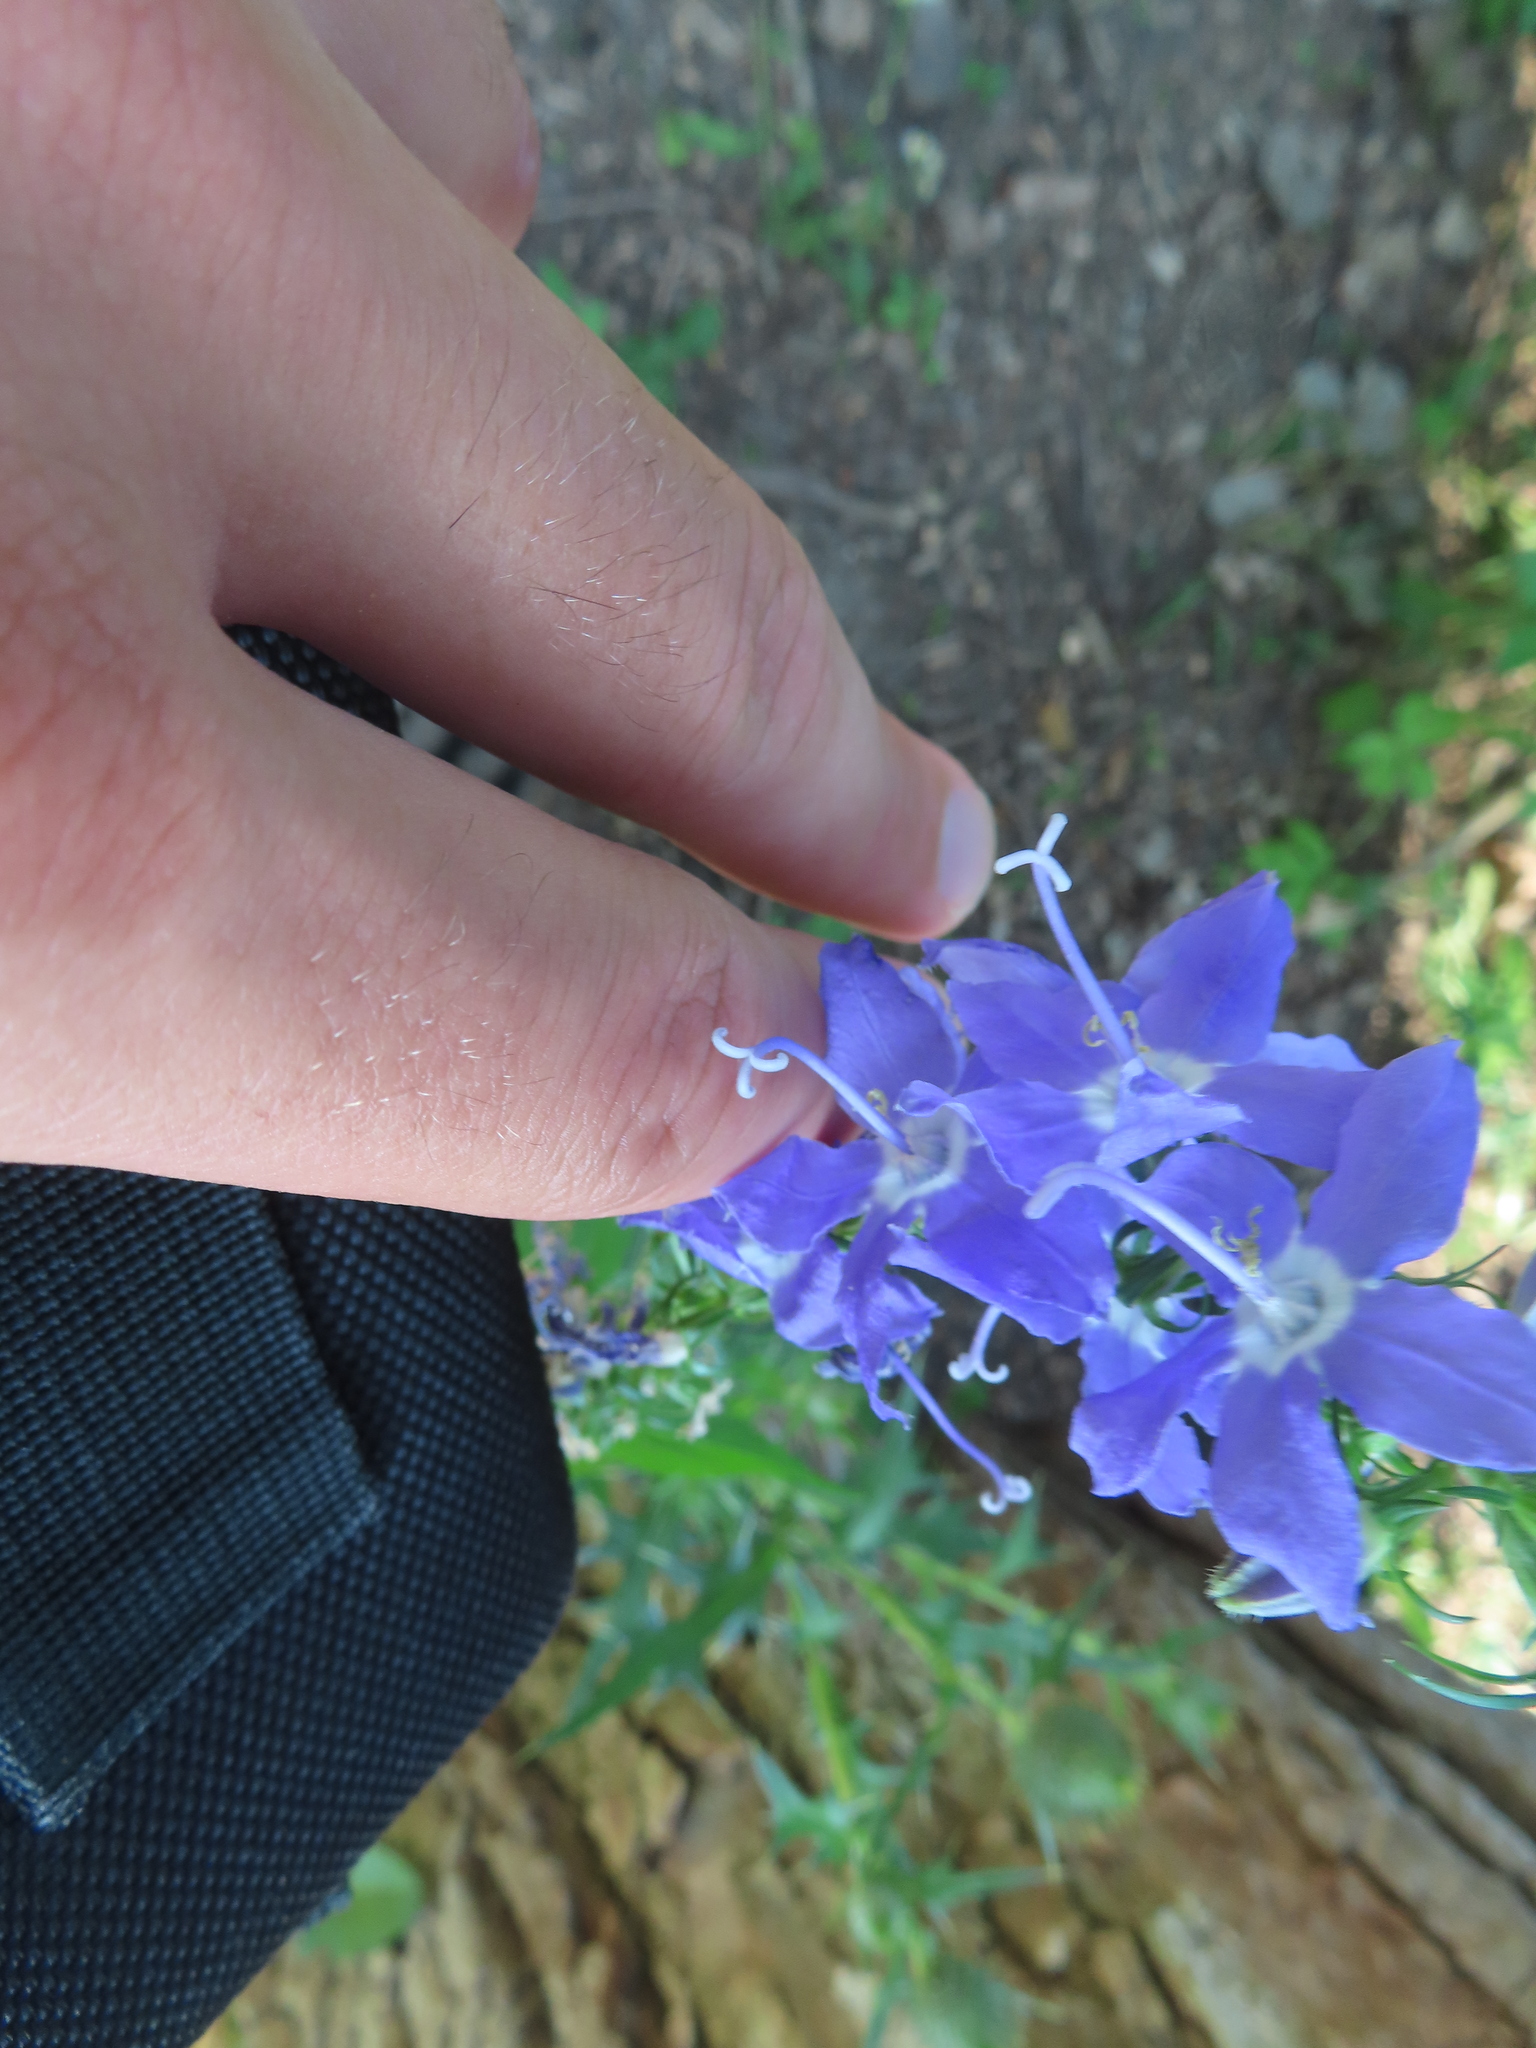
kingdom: Plantae
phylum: Tracheophyta
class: Magnoliopsida
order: Asterales
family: Campanulaceae
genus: Campanulastrum
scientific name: Campanulastrum americanum
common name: American bellflower
